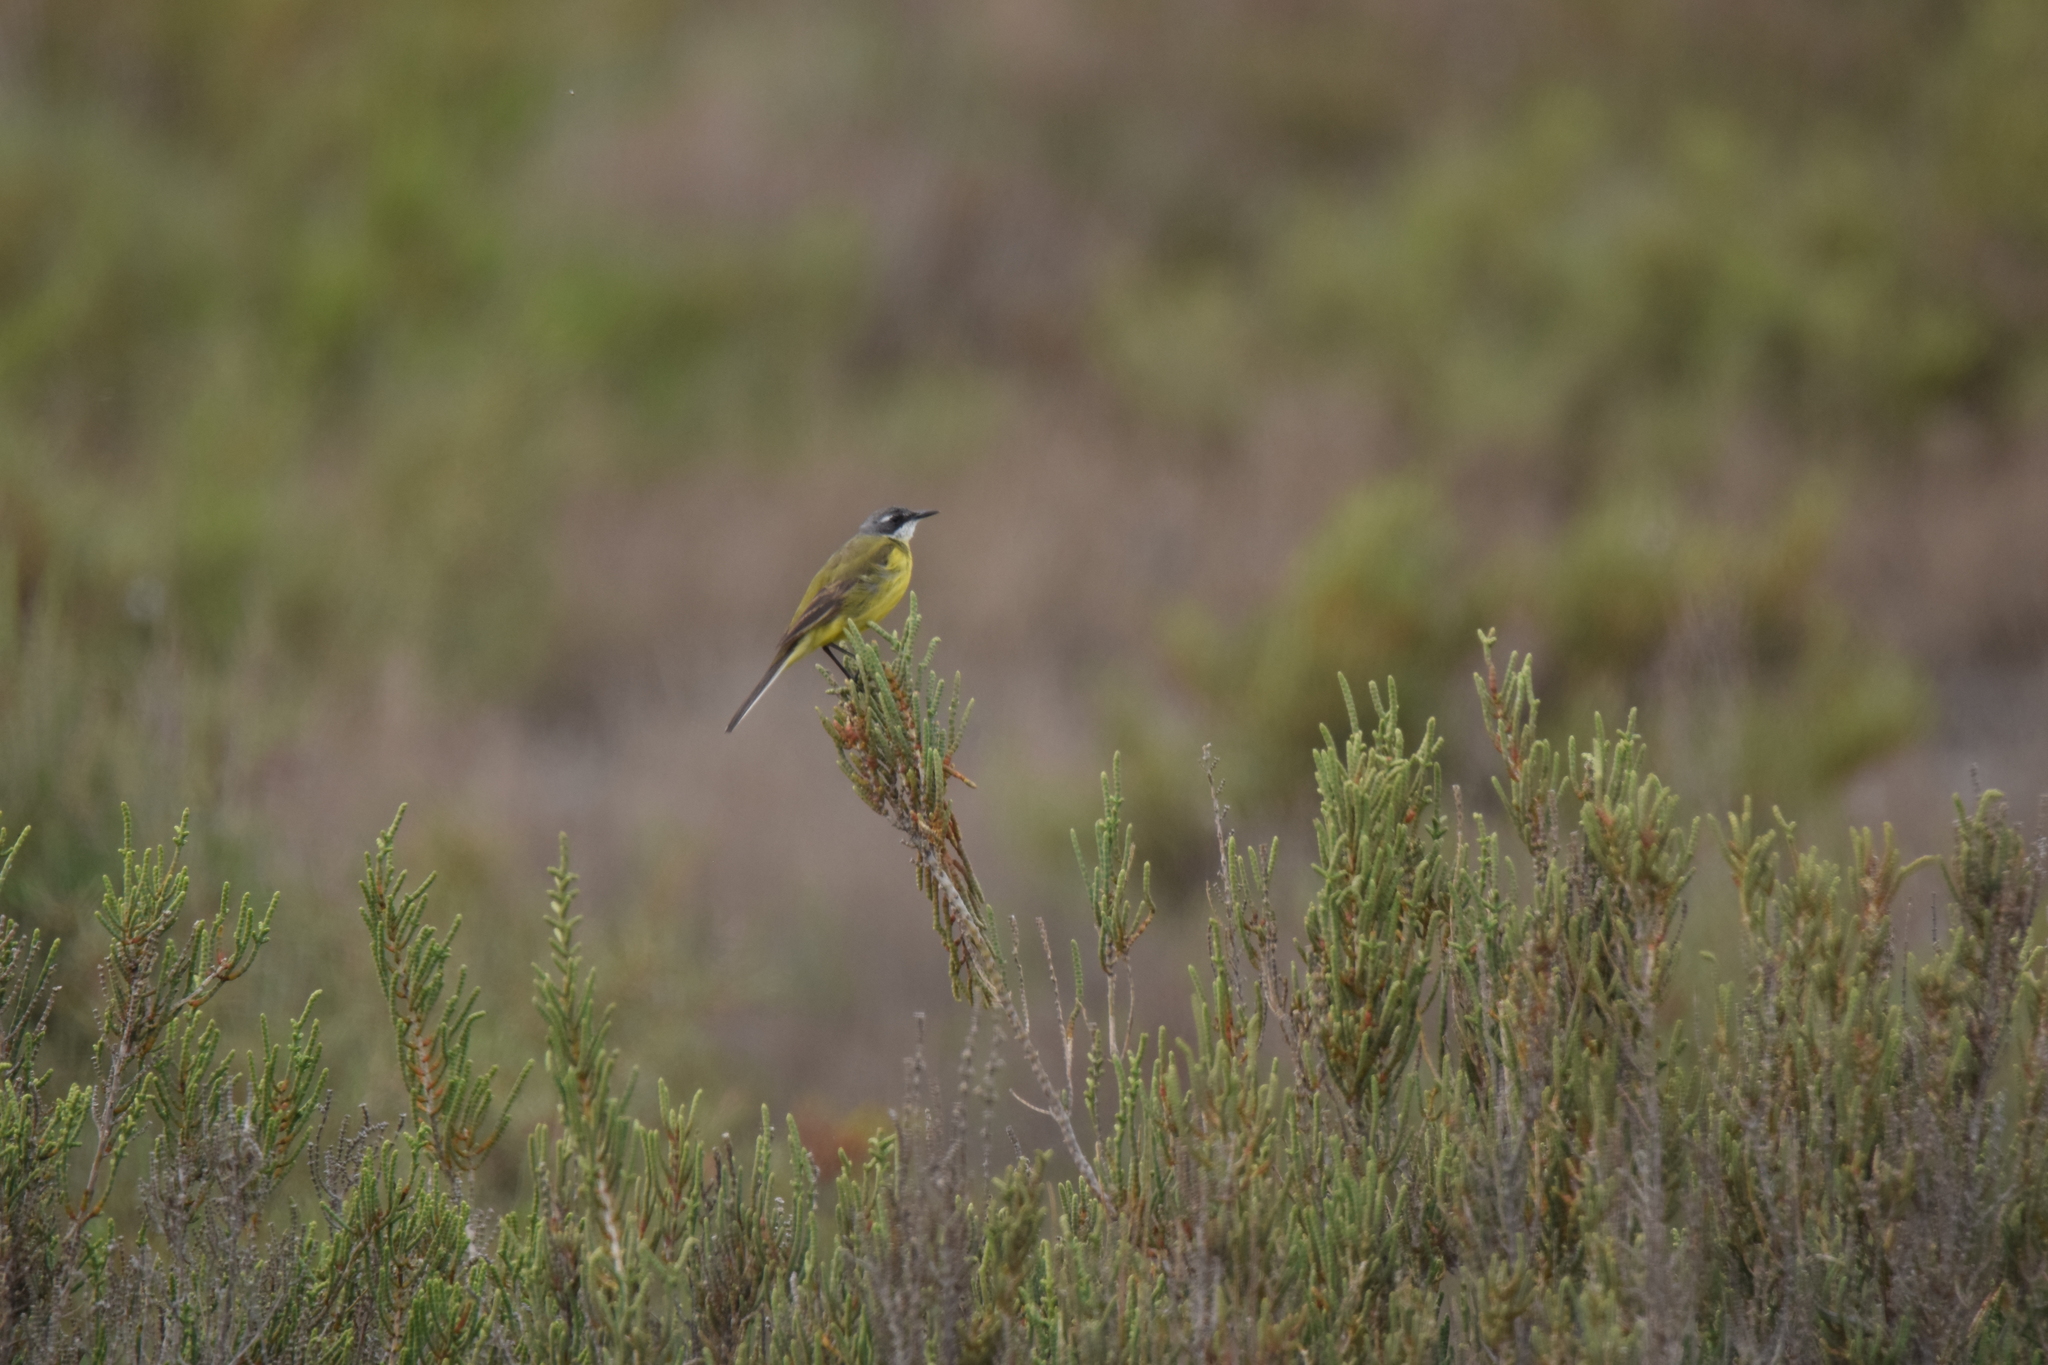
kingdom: Animalia
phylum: Chordata
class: Aves
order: Passeriformes
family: Motacillidae
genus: Motacilla
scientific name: Motacilla flava
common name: Western yellow wagtail
